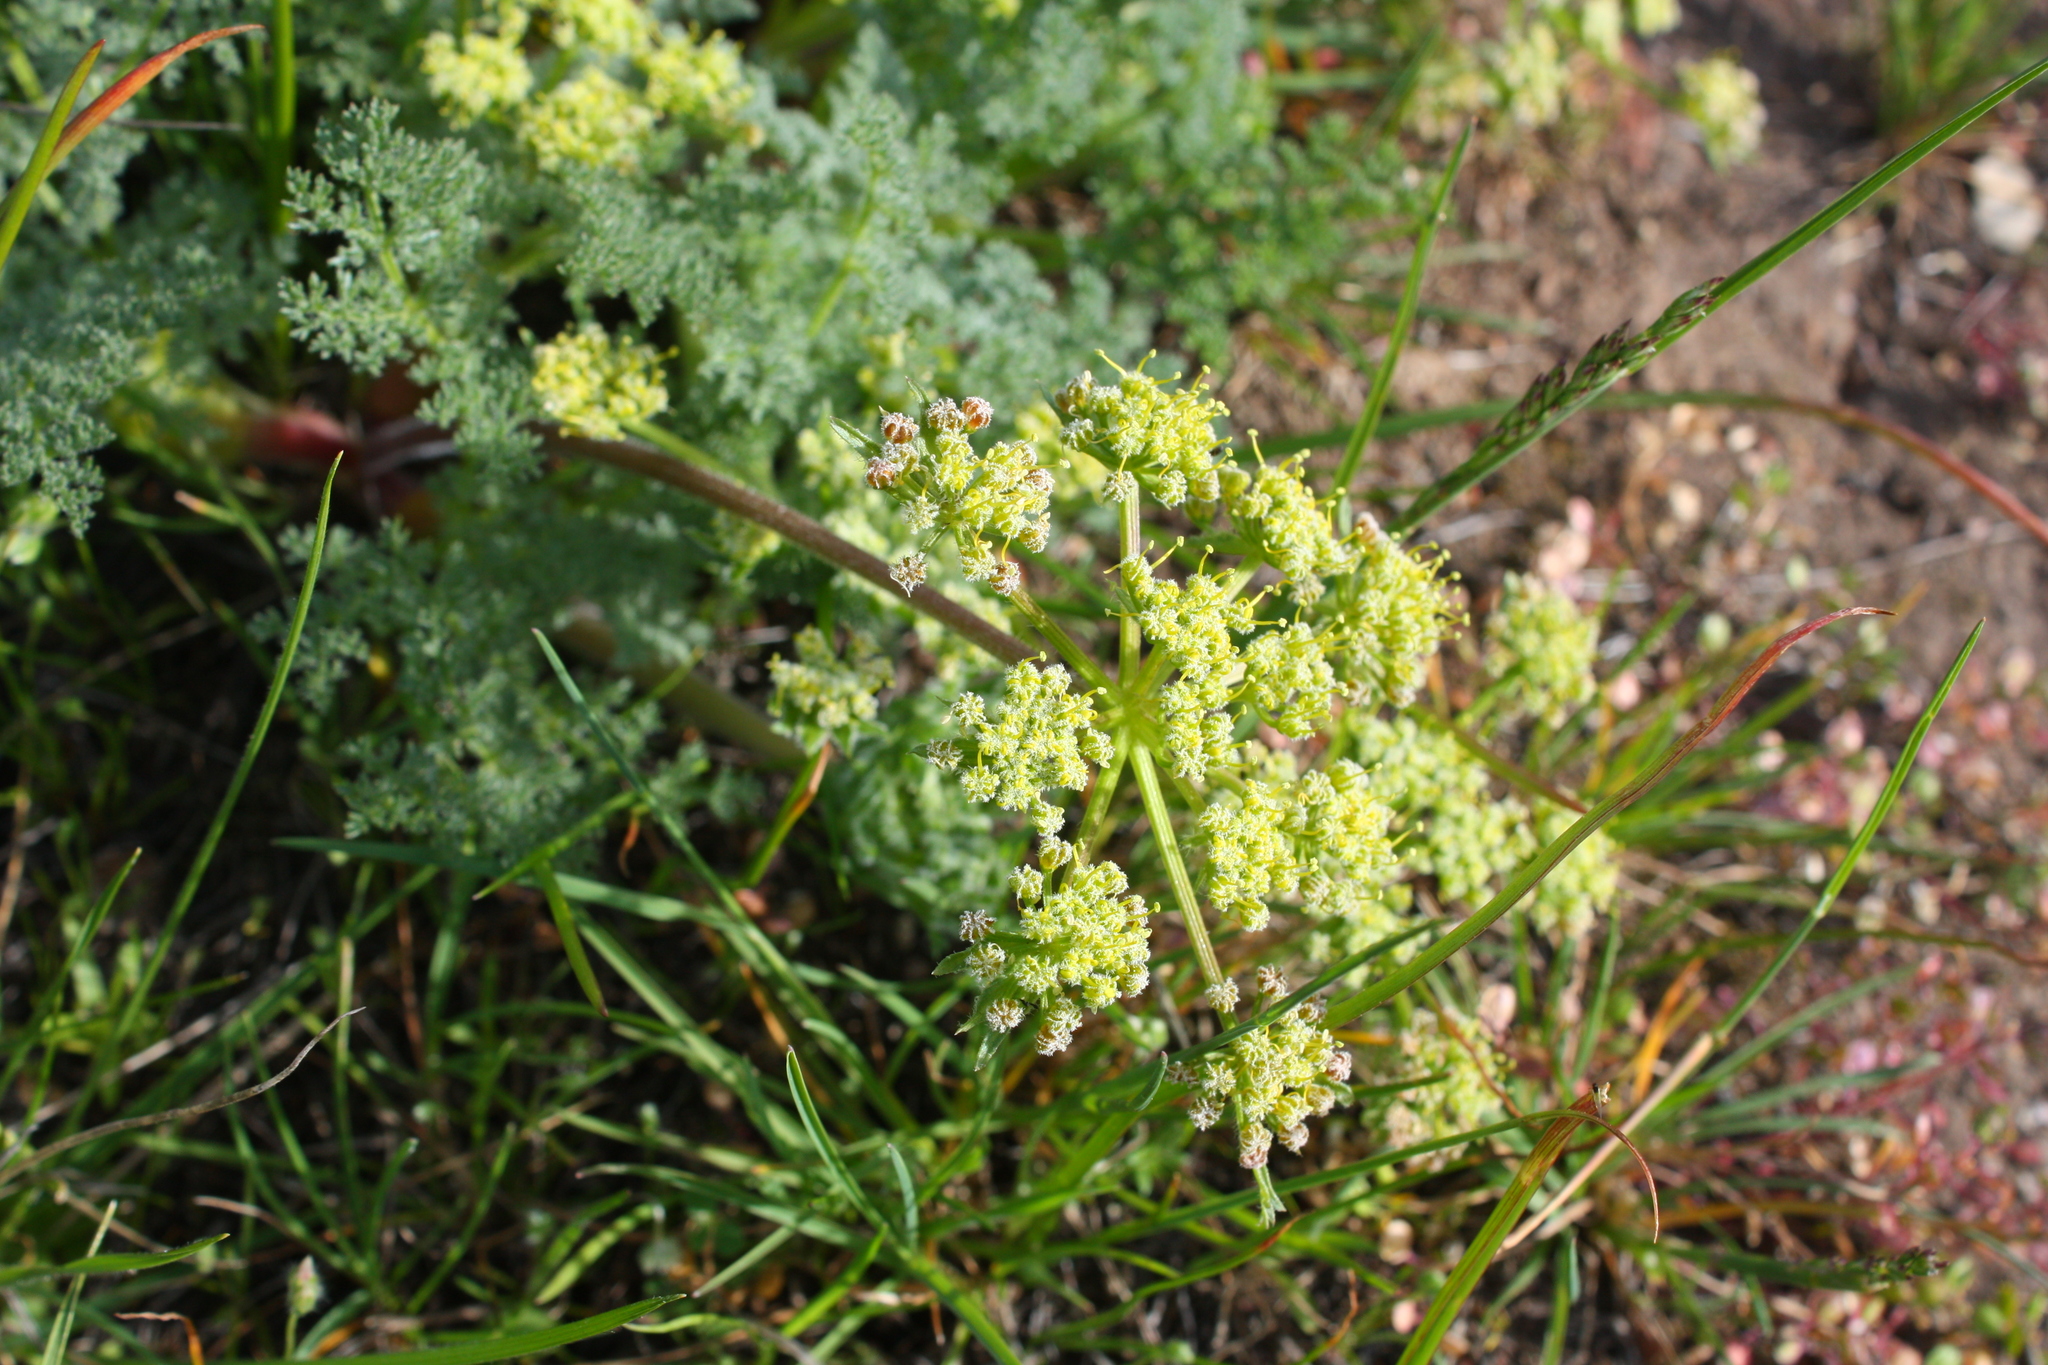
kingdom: Plantae
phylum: Tracheophyta
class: Magnoliopsida
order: Apiales
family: Apiaceae
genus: Lomatium
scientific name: Lomatium dasycarpum
